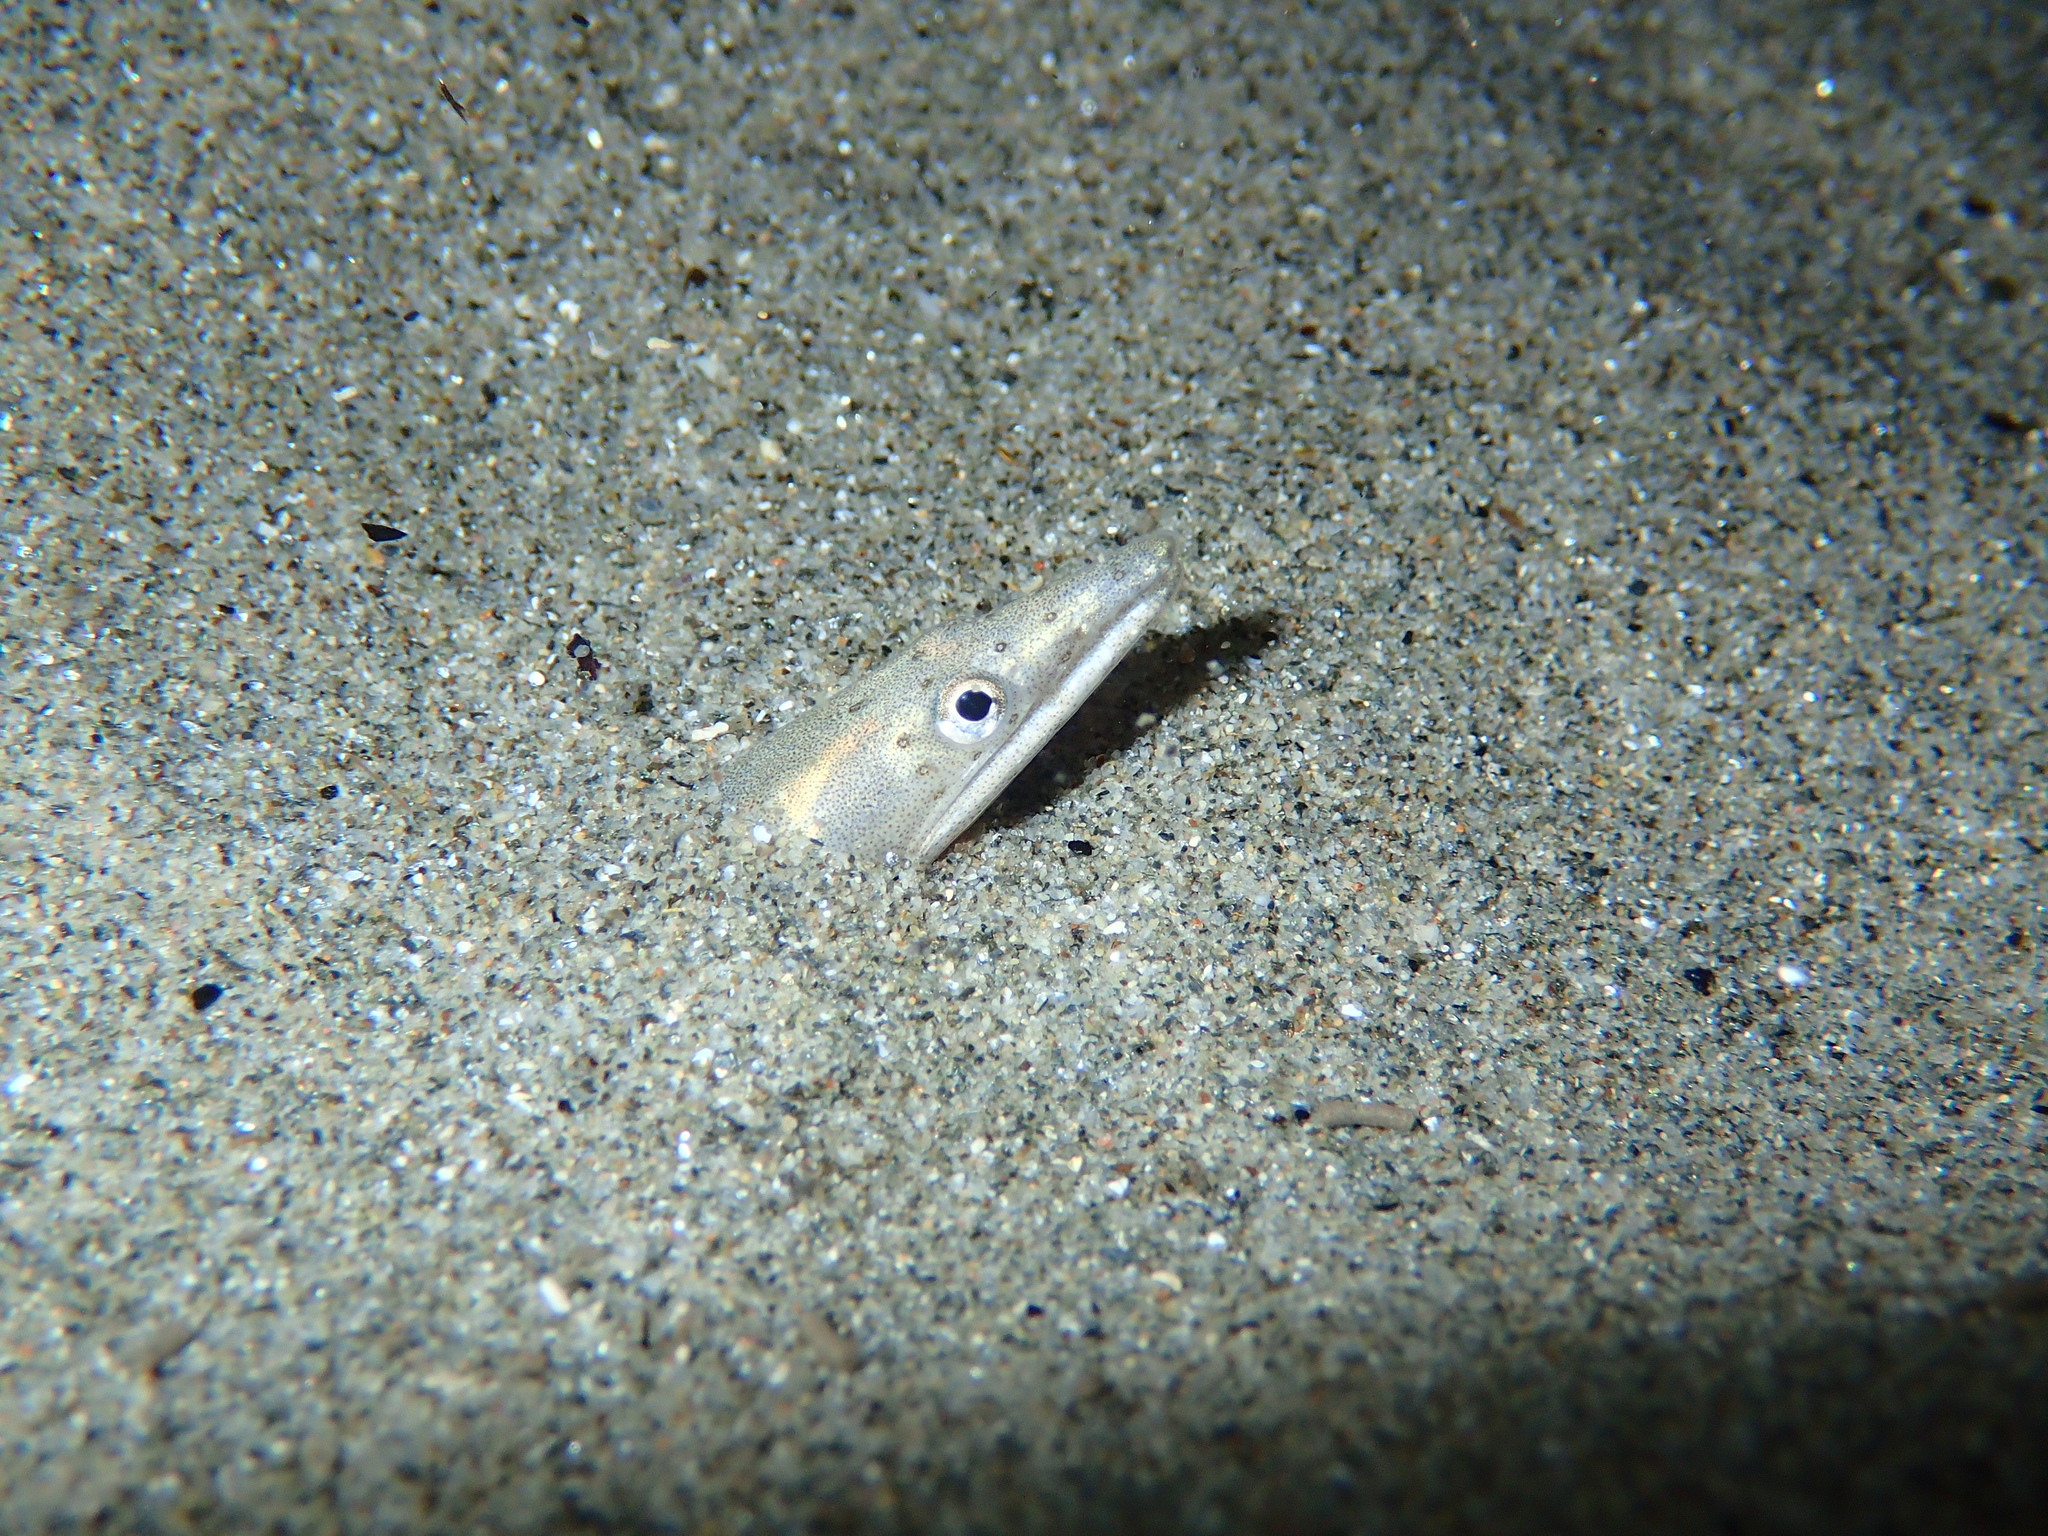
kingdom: Animalia
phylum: Chordata
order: Anguilliformes
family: Ophichthidae
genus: Ophisurus
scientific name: Ophisurus serpens
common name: Serpent eel
